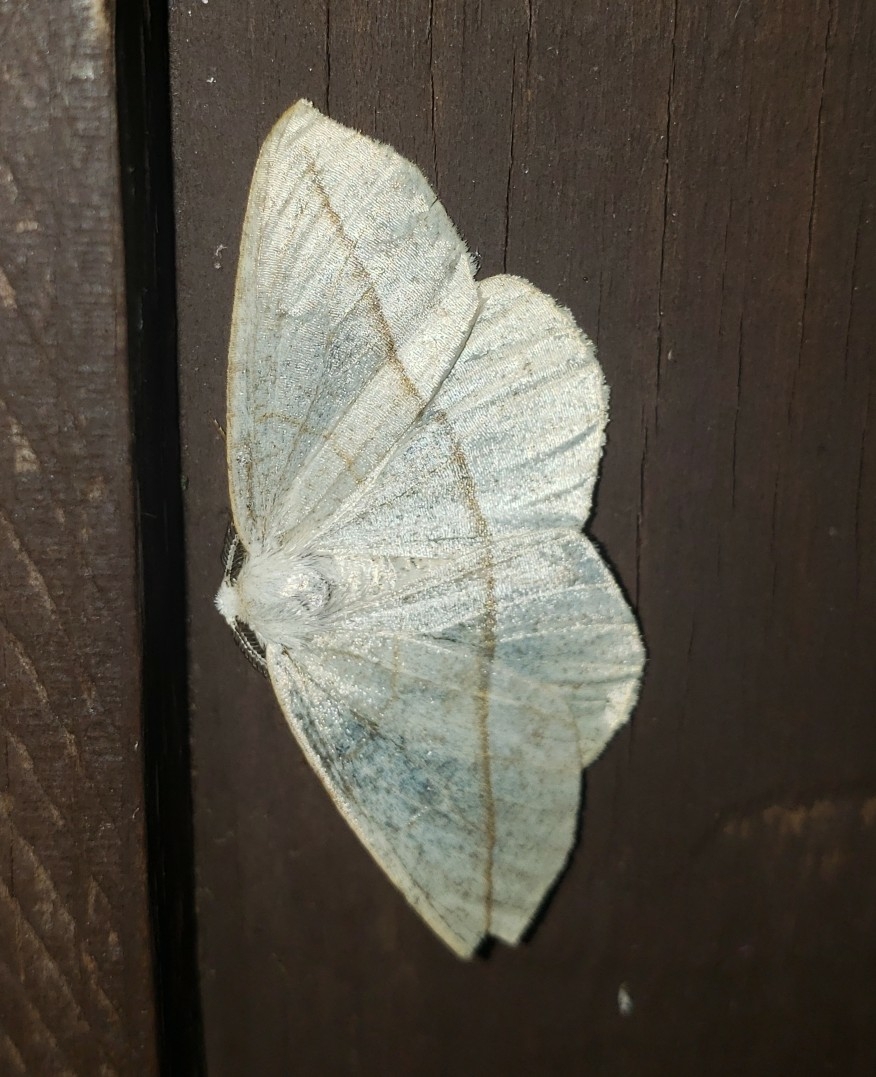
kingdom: Animalia
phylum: Arthropoda
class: Insecta
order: Lepidoptera
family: Geometridae
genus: Eusarca
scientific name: Eusarca confusaria
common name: Confused eusarca
